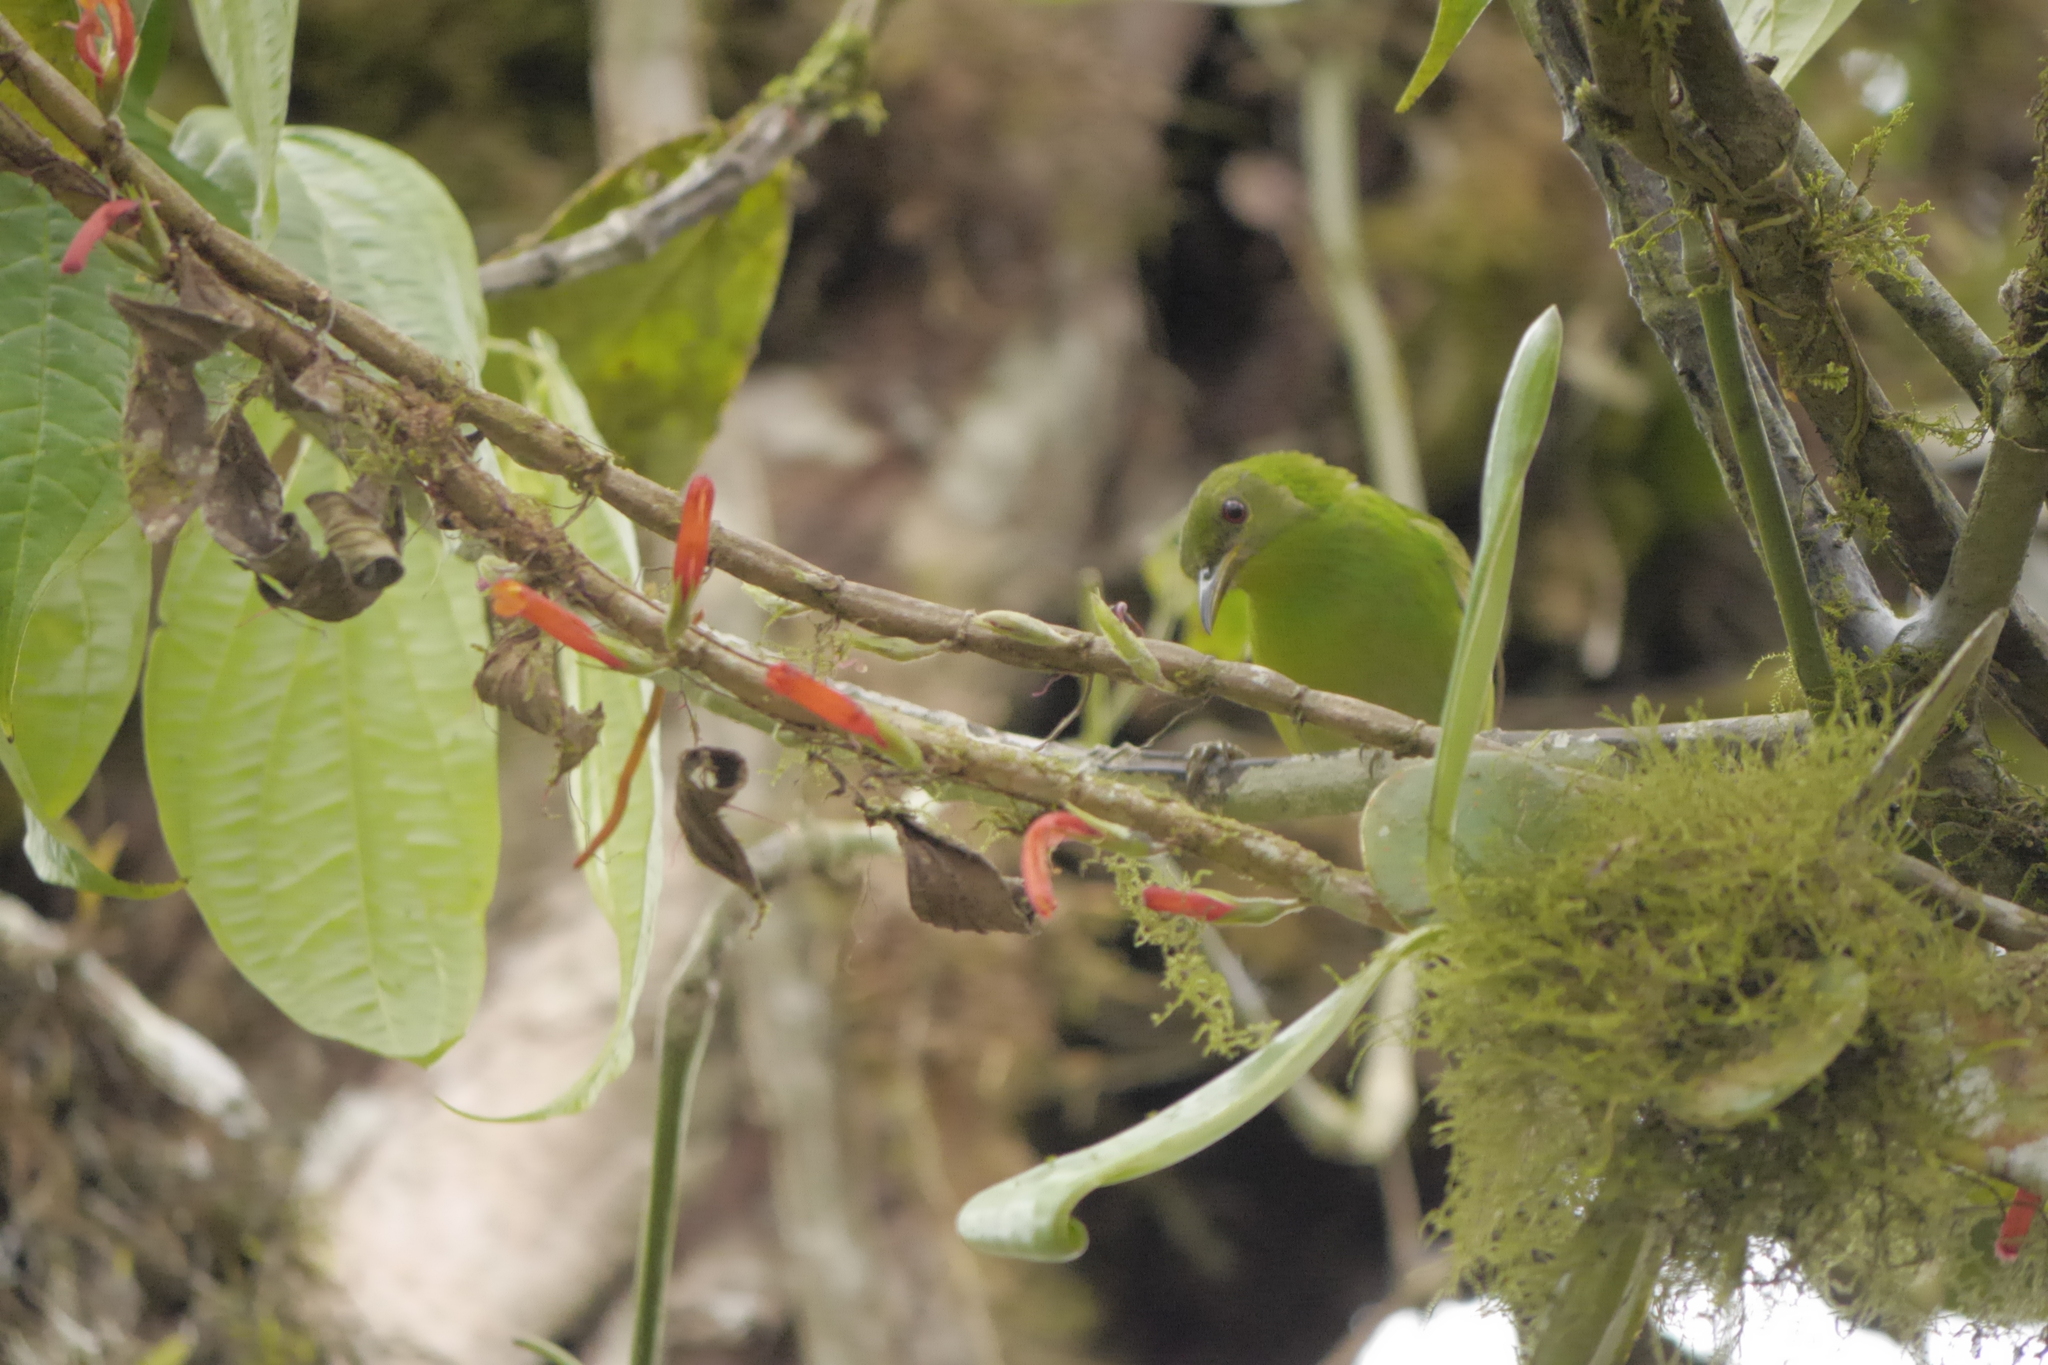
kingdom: Animalia
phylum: Chordata
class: Aves
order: Passeriformes
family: Thraupidae
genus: Chlorophanes
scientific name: Chlorophanes spiza
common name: Green honeycreeper
